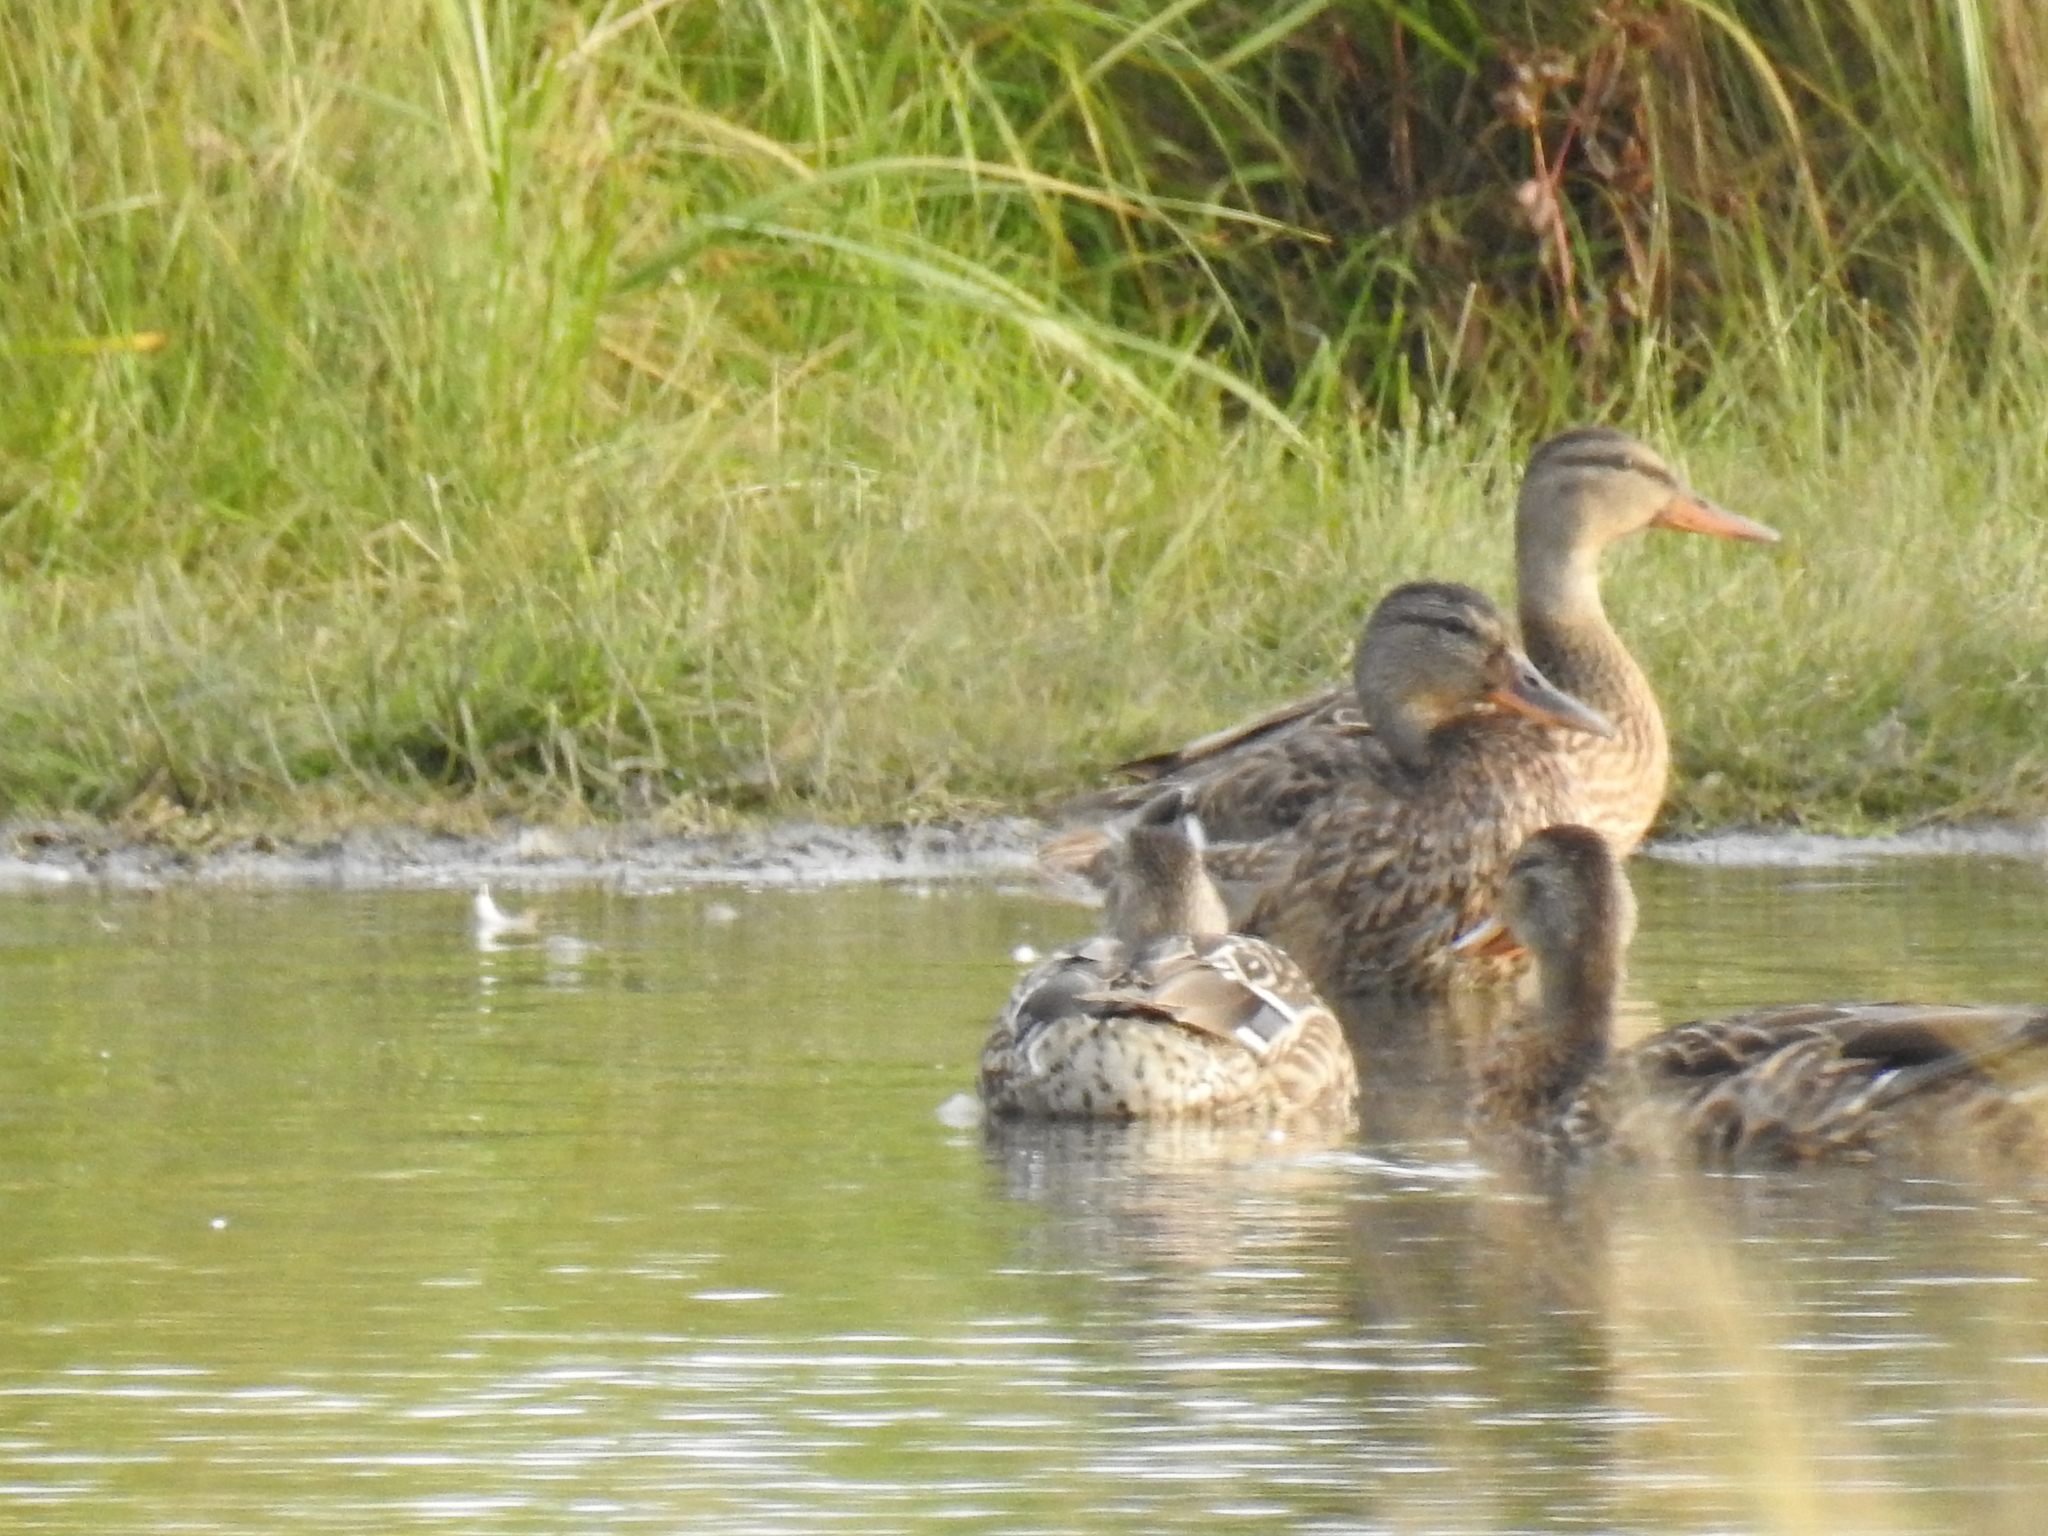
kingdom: Animalia
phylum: Chordata
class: Aves
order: Anseriformes
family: Anatidae
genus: Anas
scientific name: Anas platyrhynchos
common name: Mallard
